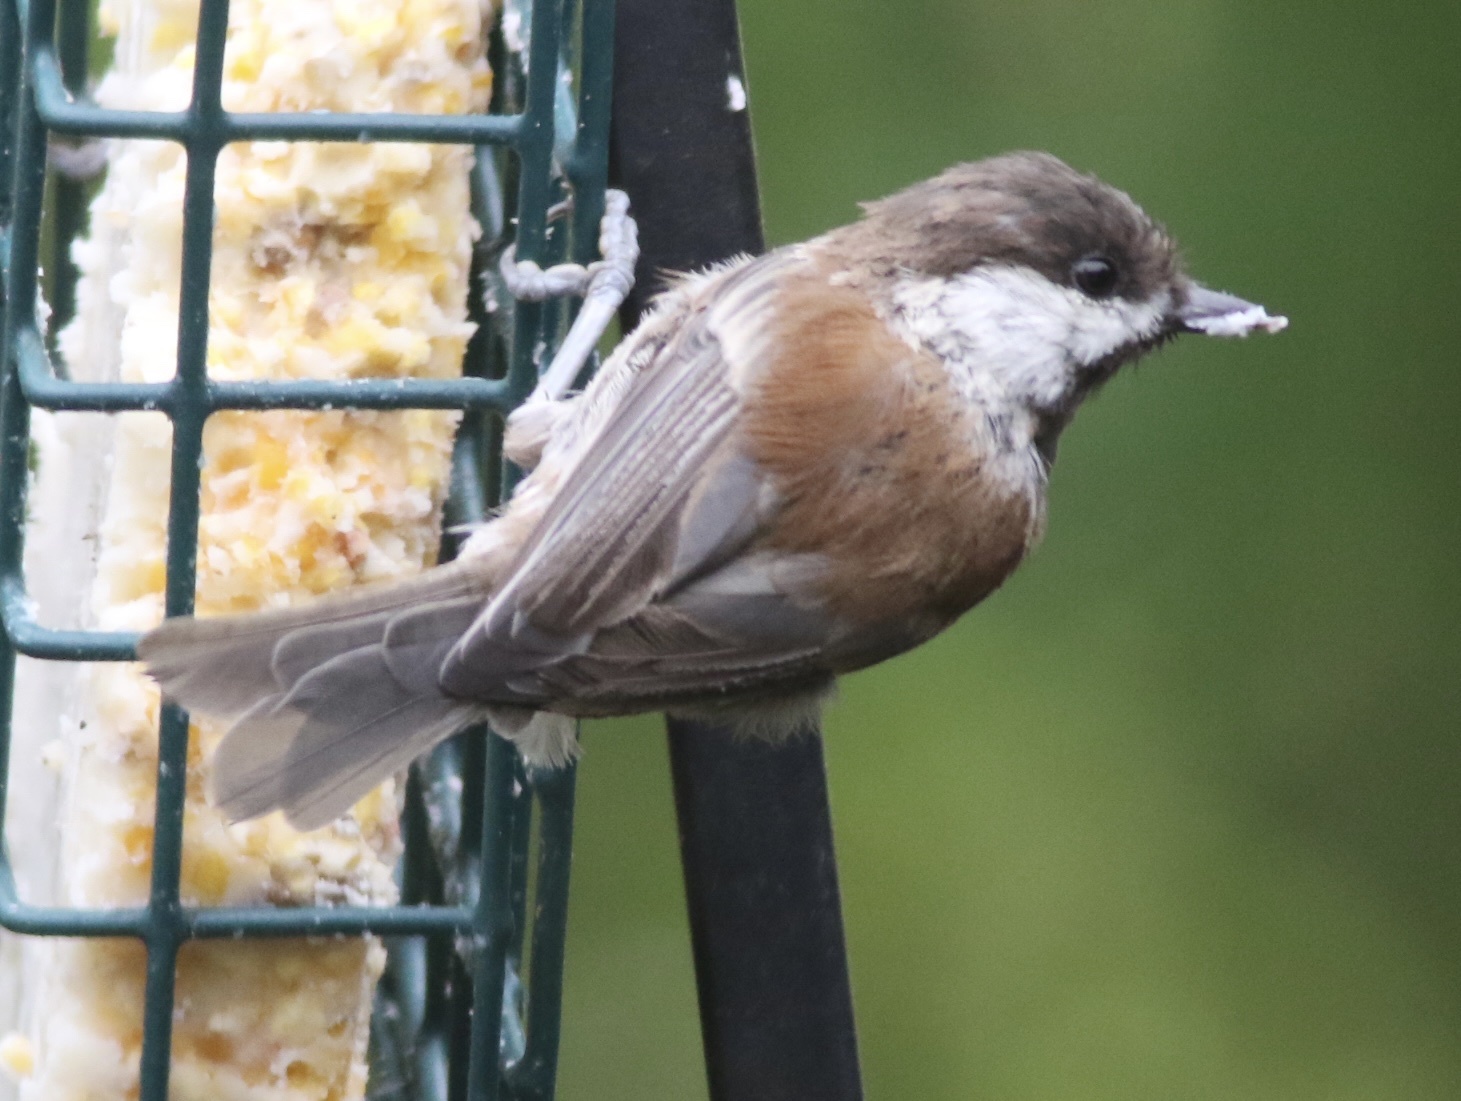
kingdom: Animalia
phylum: Chordata
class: Aves
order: Passeriformes
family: Paridae
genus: Poecile
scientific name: Poecile rufescens
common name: Chestnut-backed chickadee
